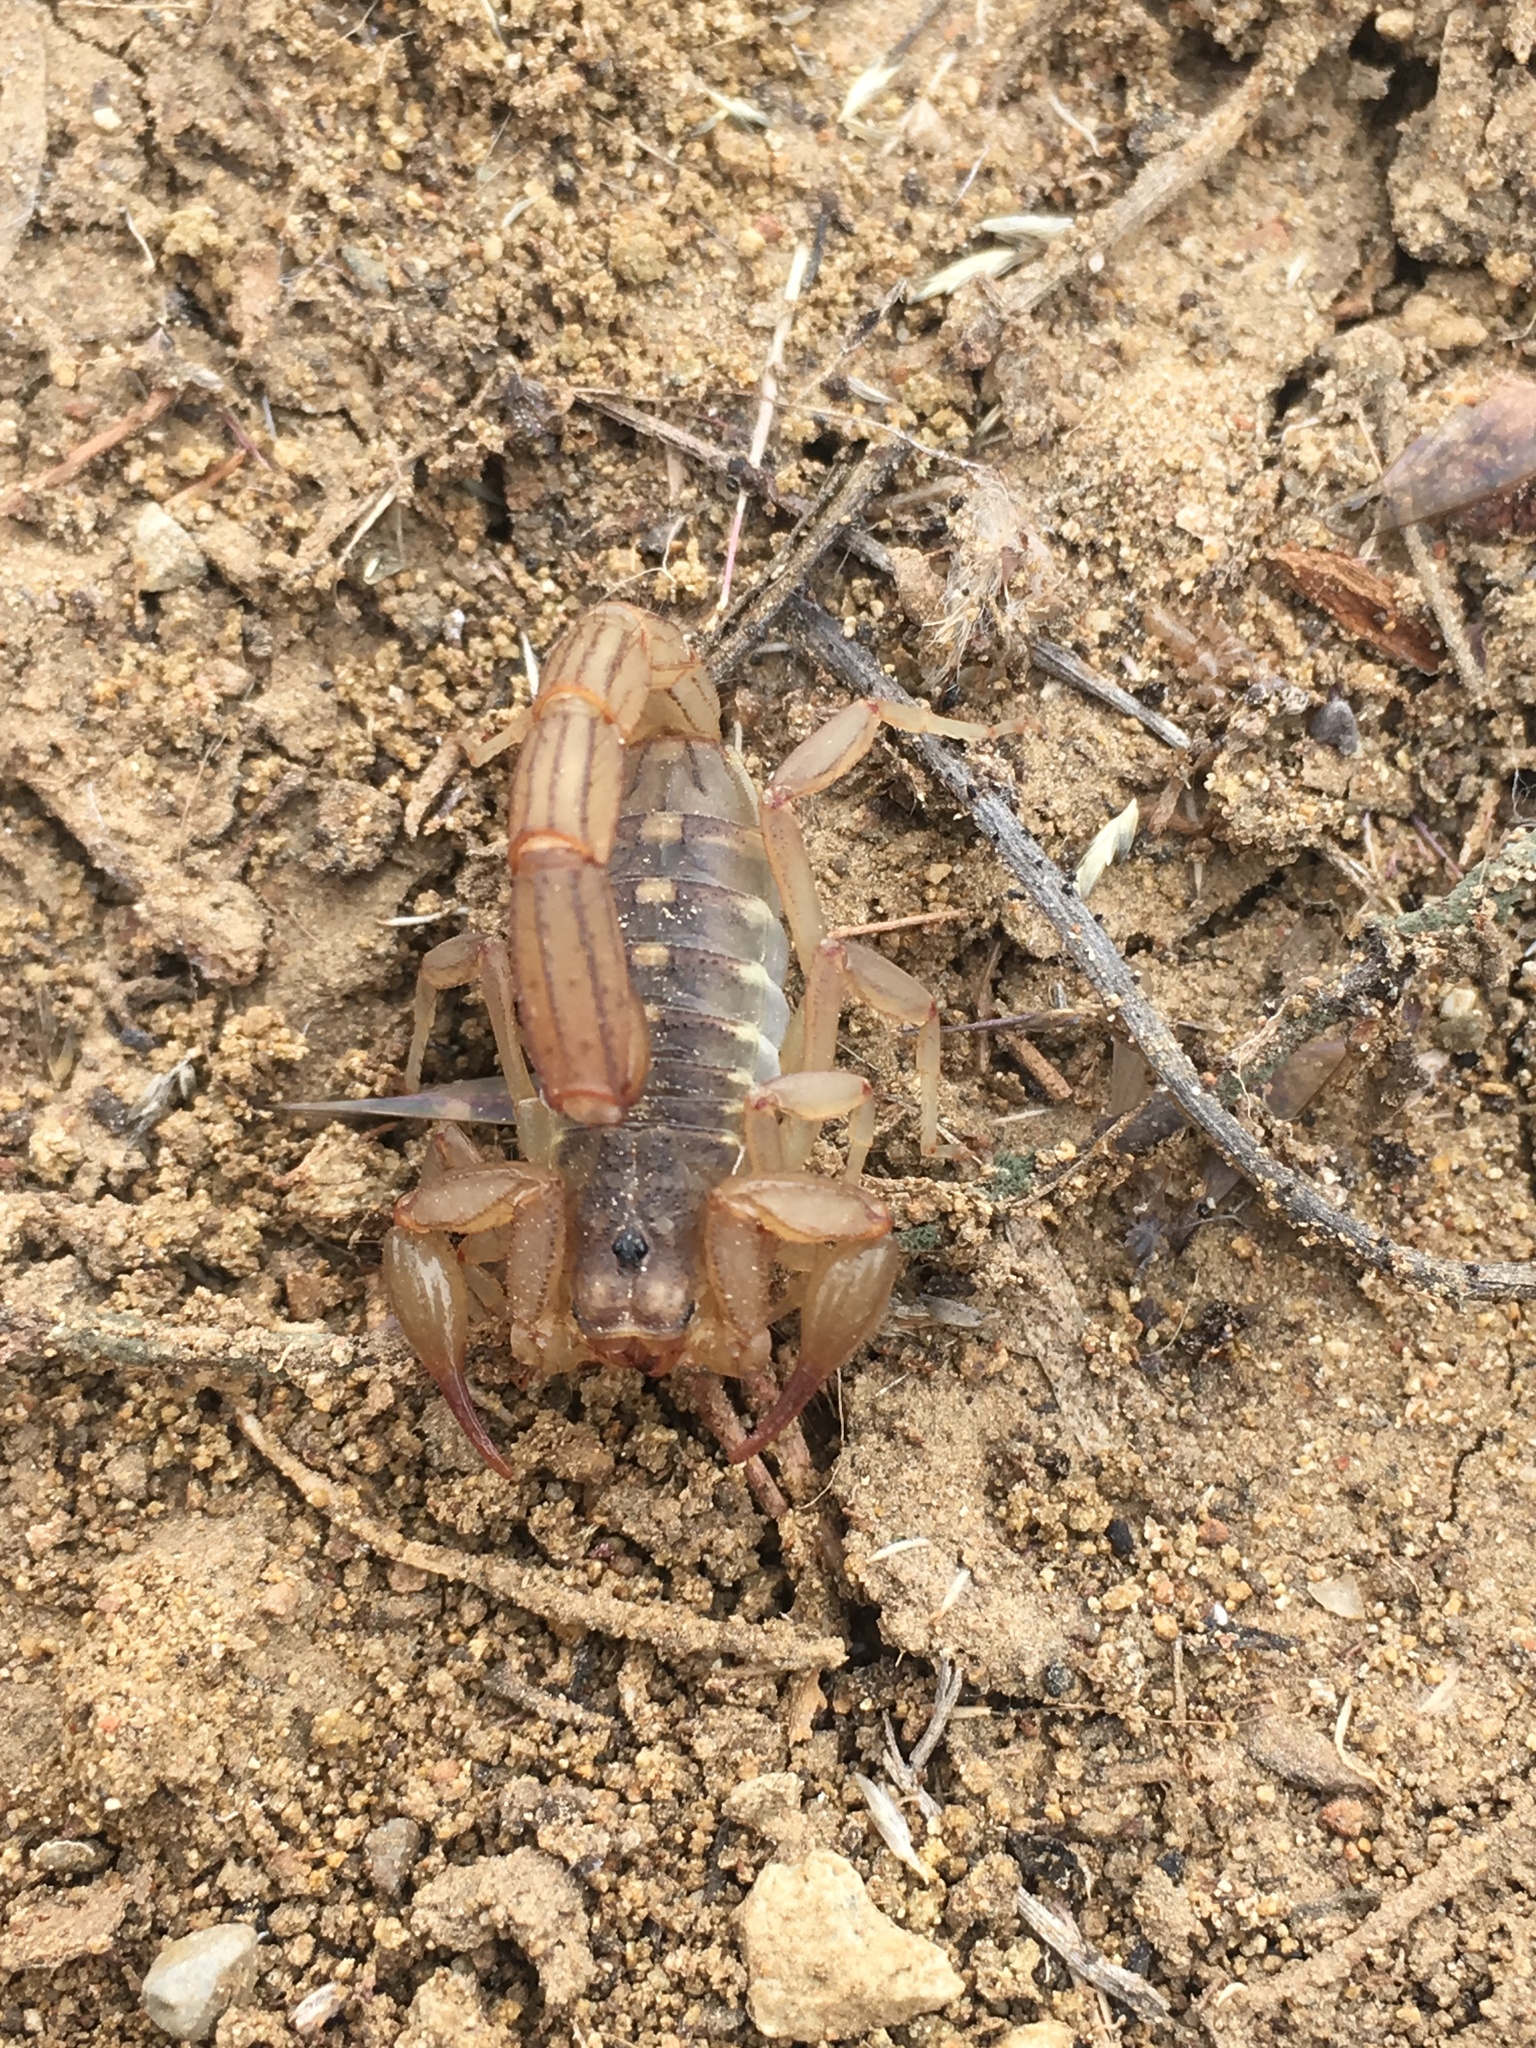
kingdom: Animalia
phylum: Arthropoda
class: Arachnida
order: Scorpiones
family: Vaejovidae
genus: Chihuahuanus
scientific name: Chihuahuanus coahuilae
